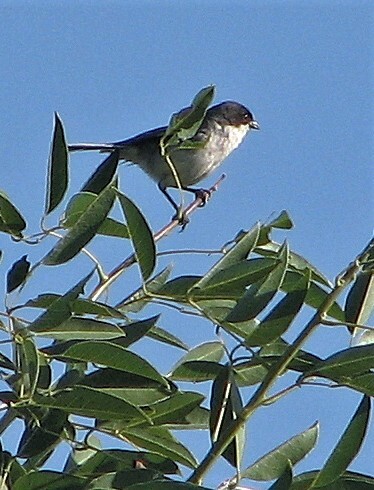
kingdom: Animalia
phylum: Chordata
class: Aves
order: Passeriformes
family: Thraupidae
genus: Microspingus
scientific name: Microspingus melanoleucus
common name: Black-capped warbling-finch
